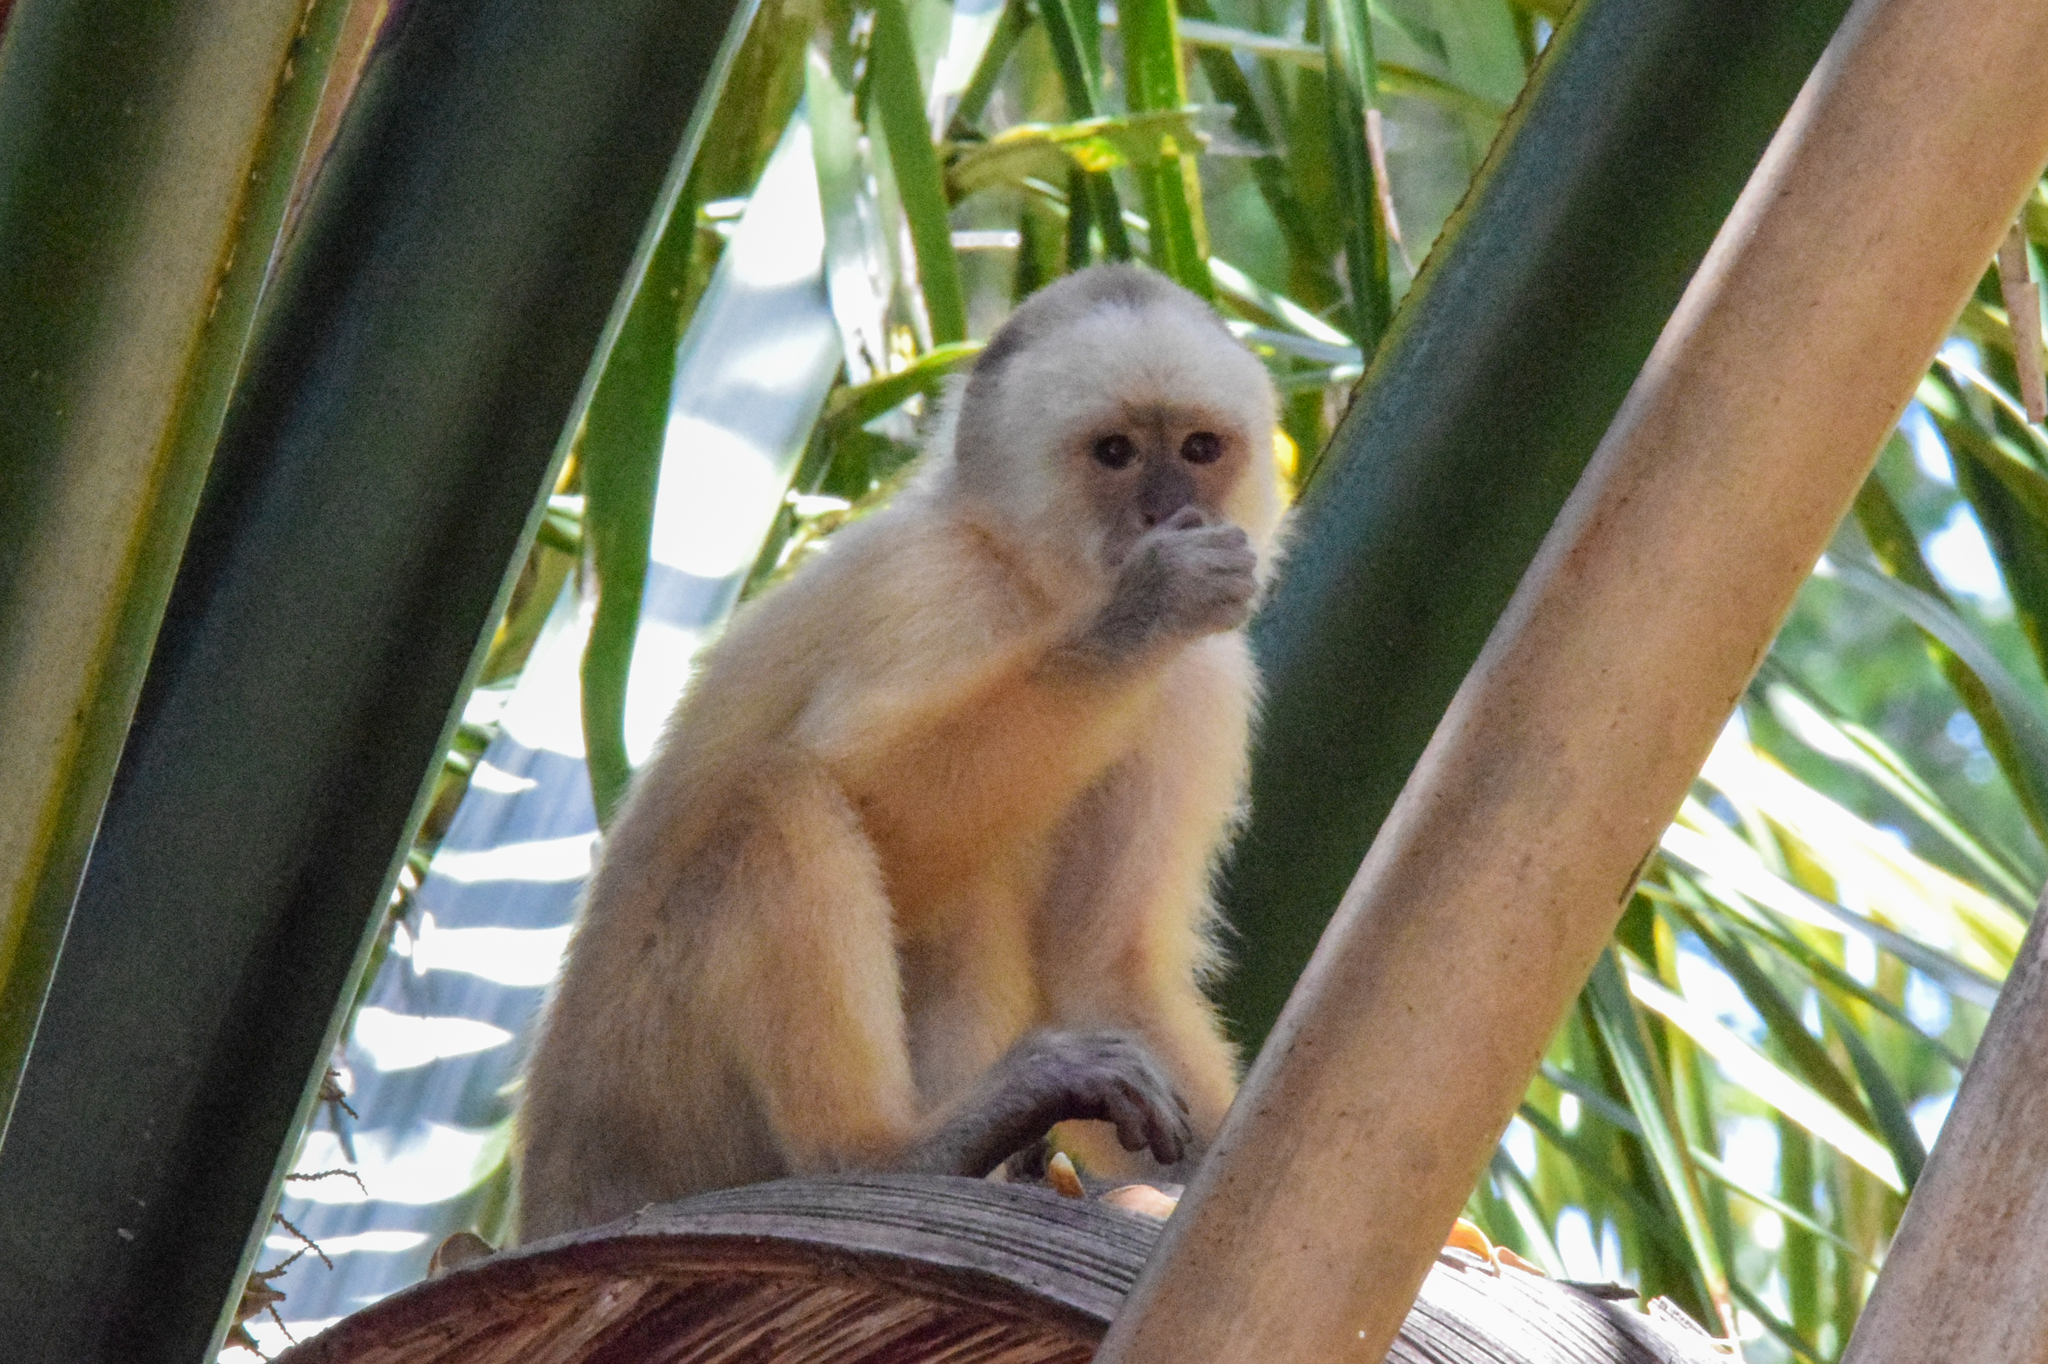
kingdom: Animalia
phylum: Chordata
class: Mammalia
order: Primates
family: Cebidae
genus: Cebus
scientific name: Cebus trinitatis
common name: Trinidad white-fronted capuchin
